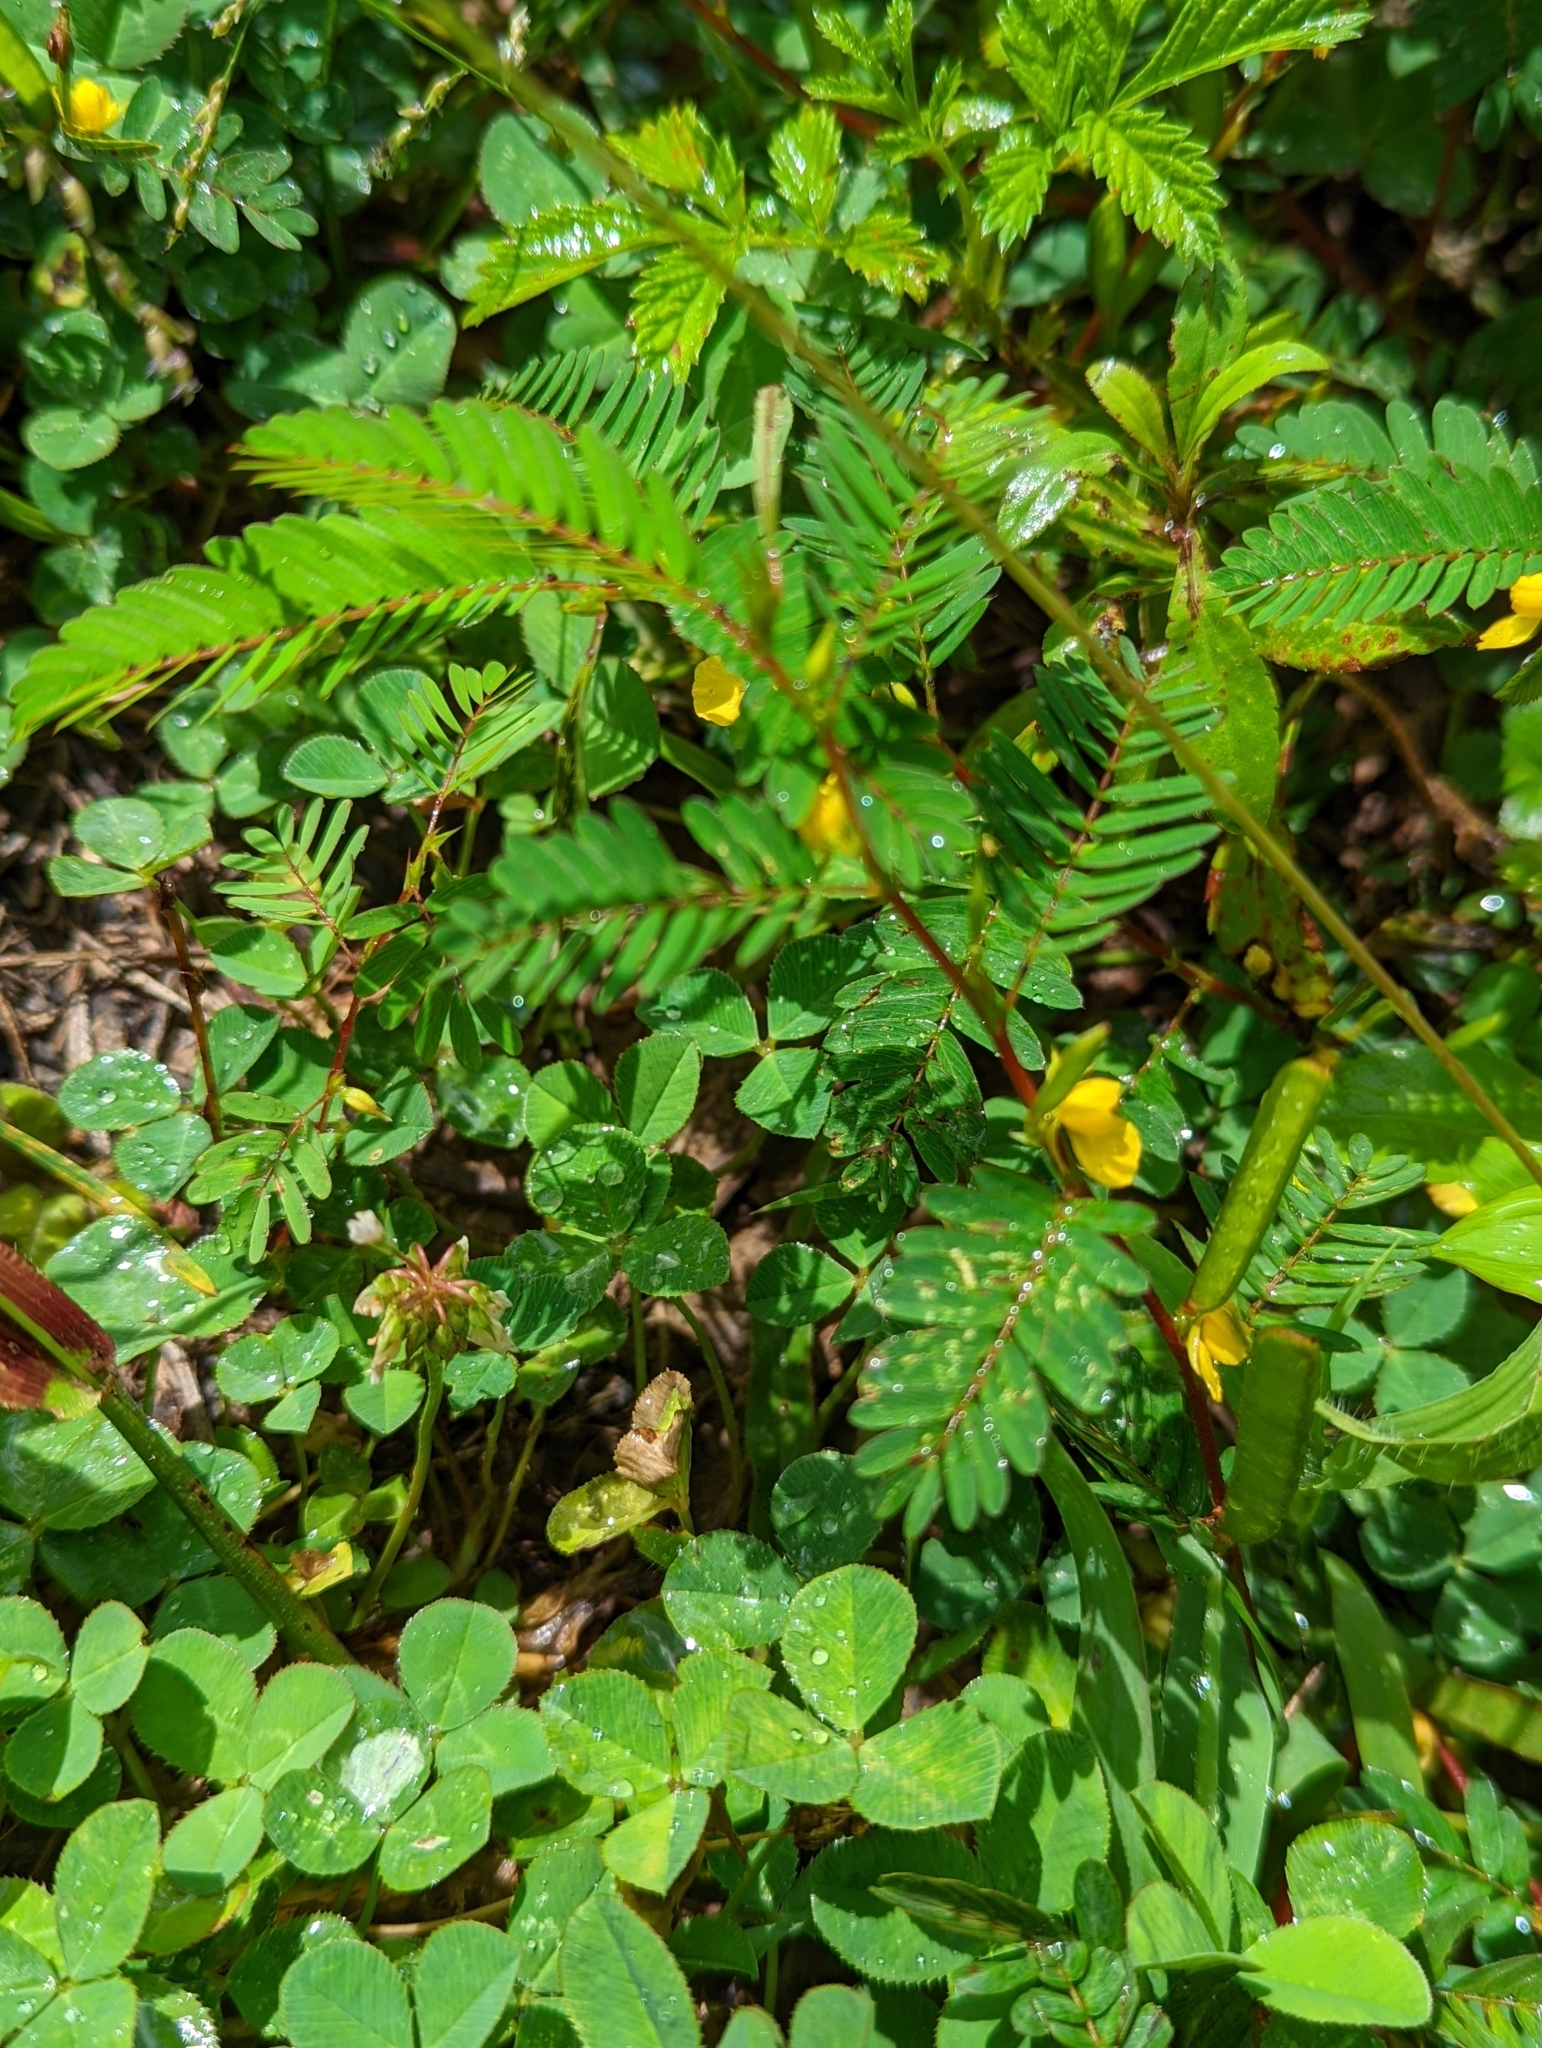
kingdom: Plantae
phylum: Tracheophyta
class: Magnoliopsida
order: Fabales
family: Fabaceae
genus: Chamaecrista
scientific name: Chamaecrista nictitans
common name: Sensitive cassia
